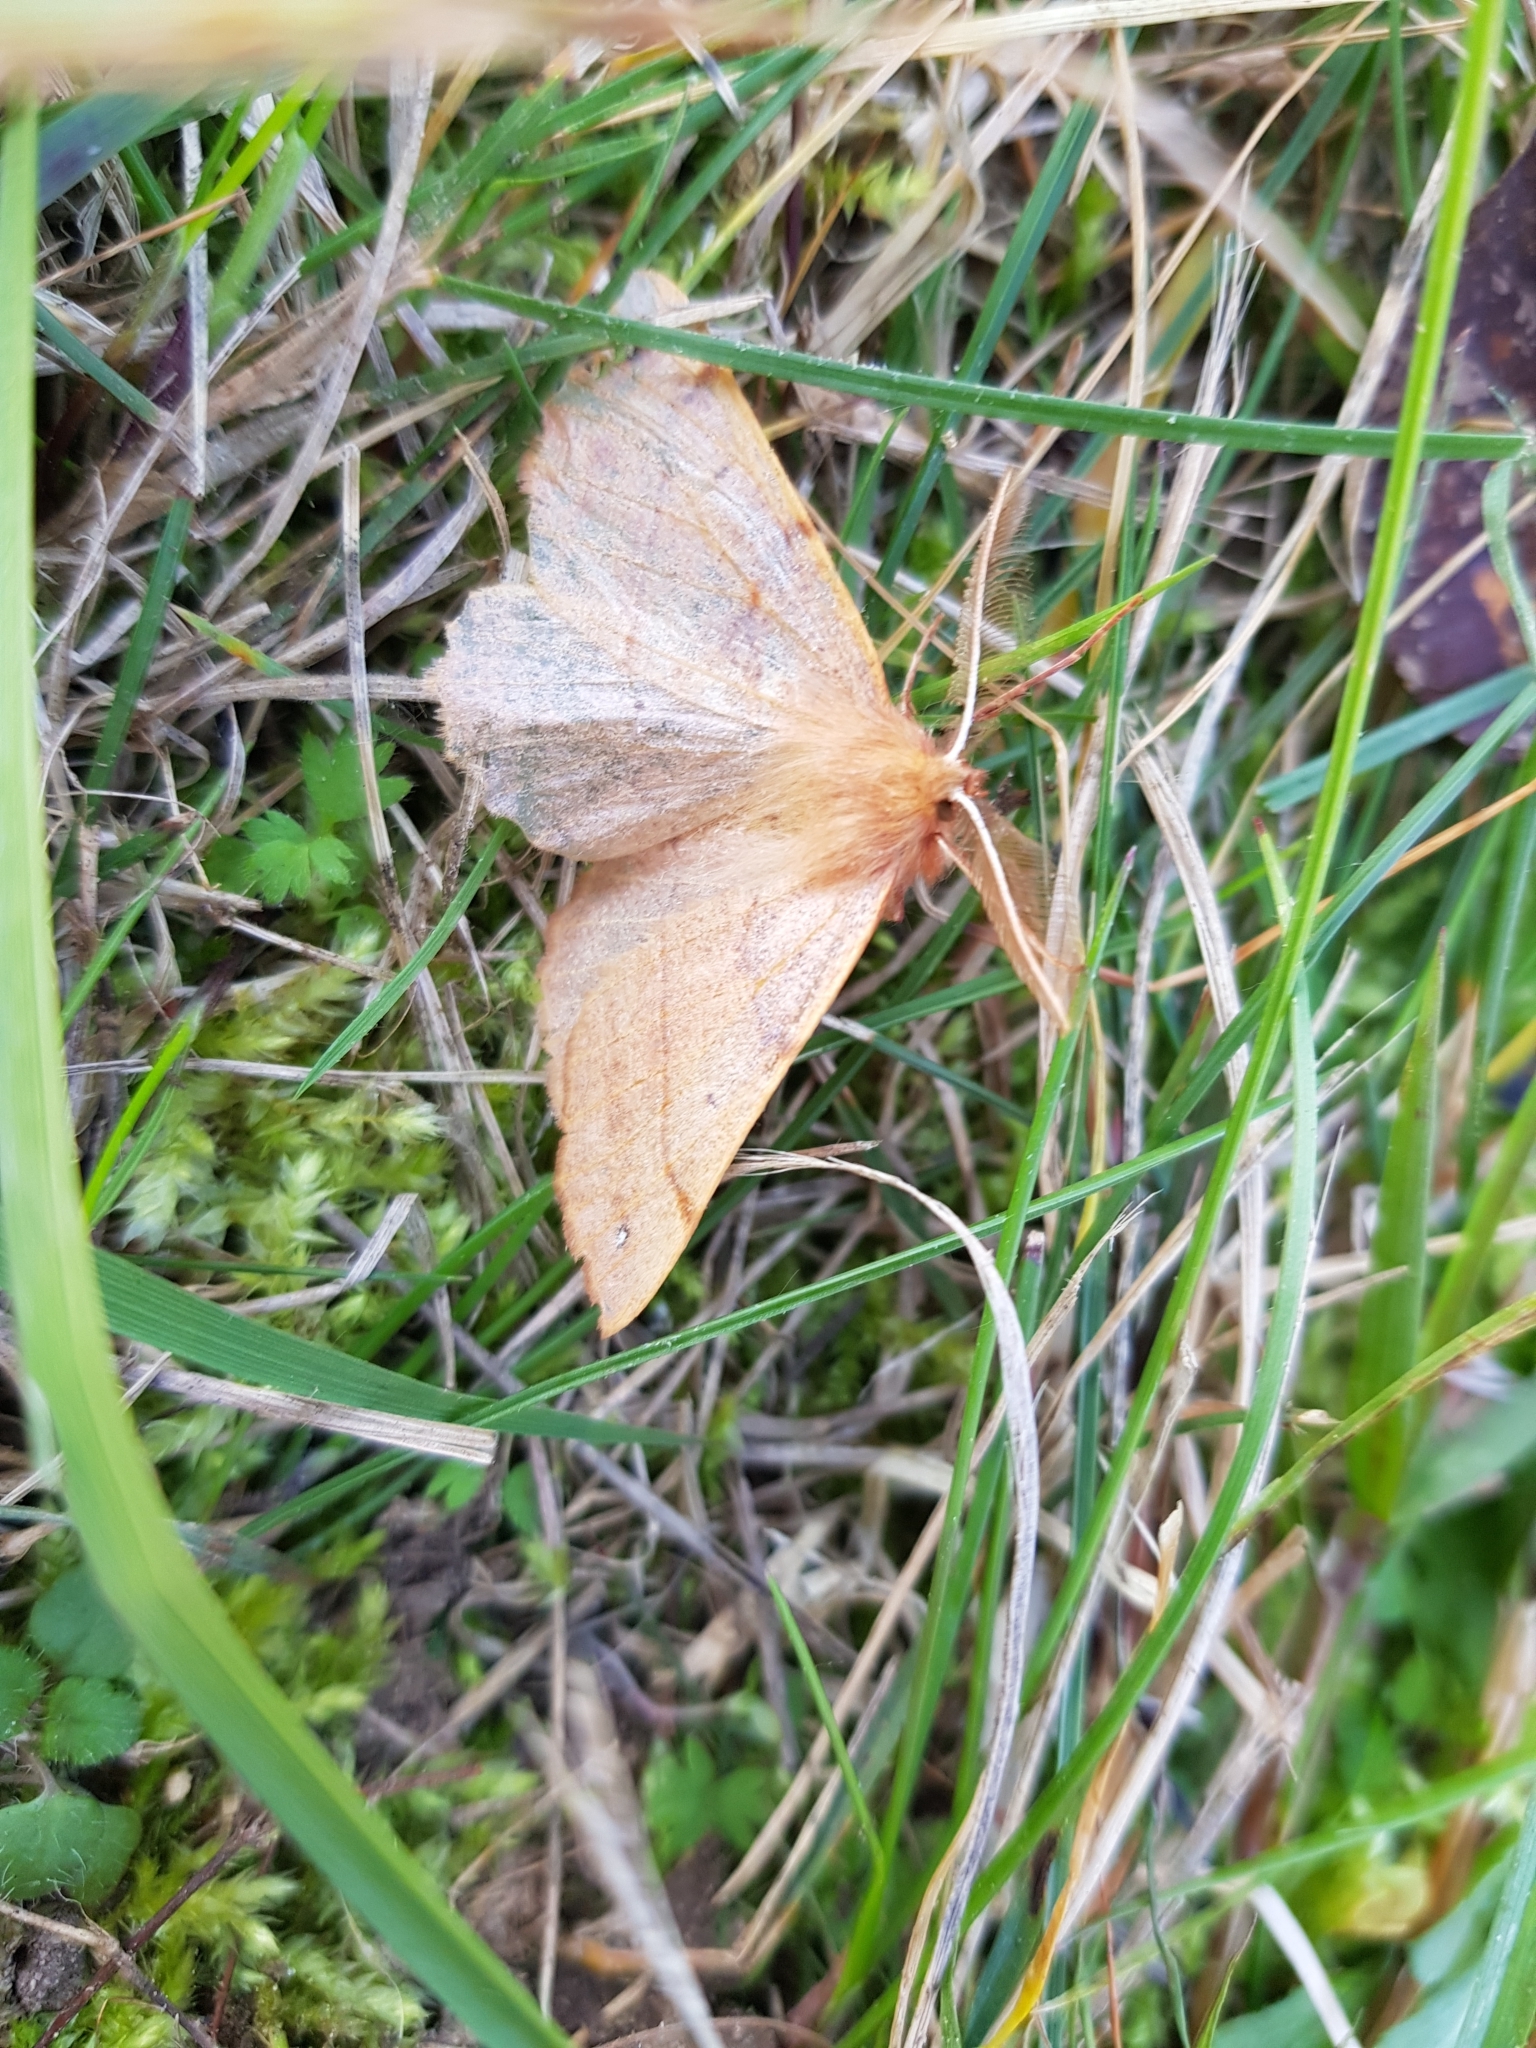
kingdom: Animalia
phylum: Arthropoda
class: Insecta
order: Lepidoptera
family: Geometridae
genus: Colotois
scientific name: Colotois pennaria
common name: Feathered thorn
